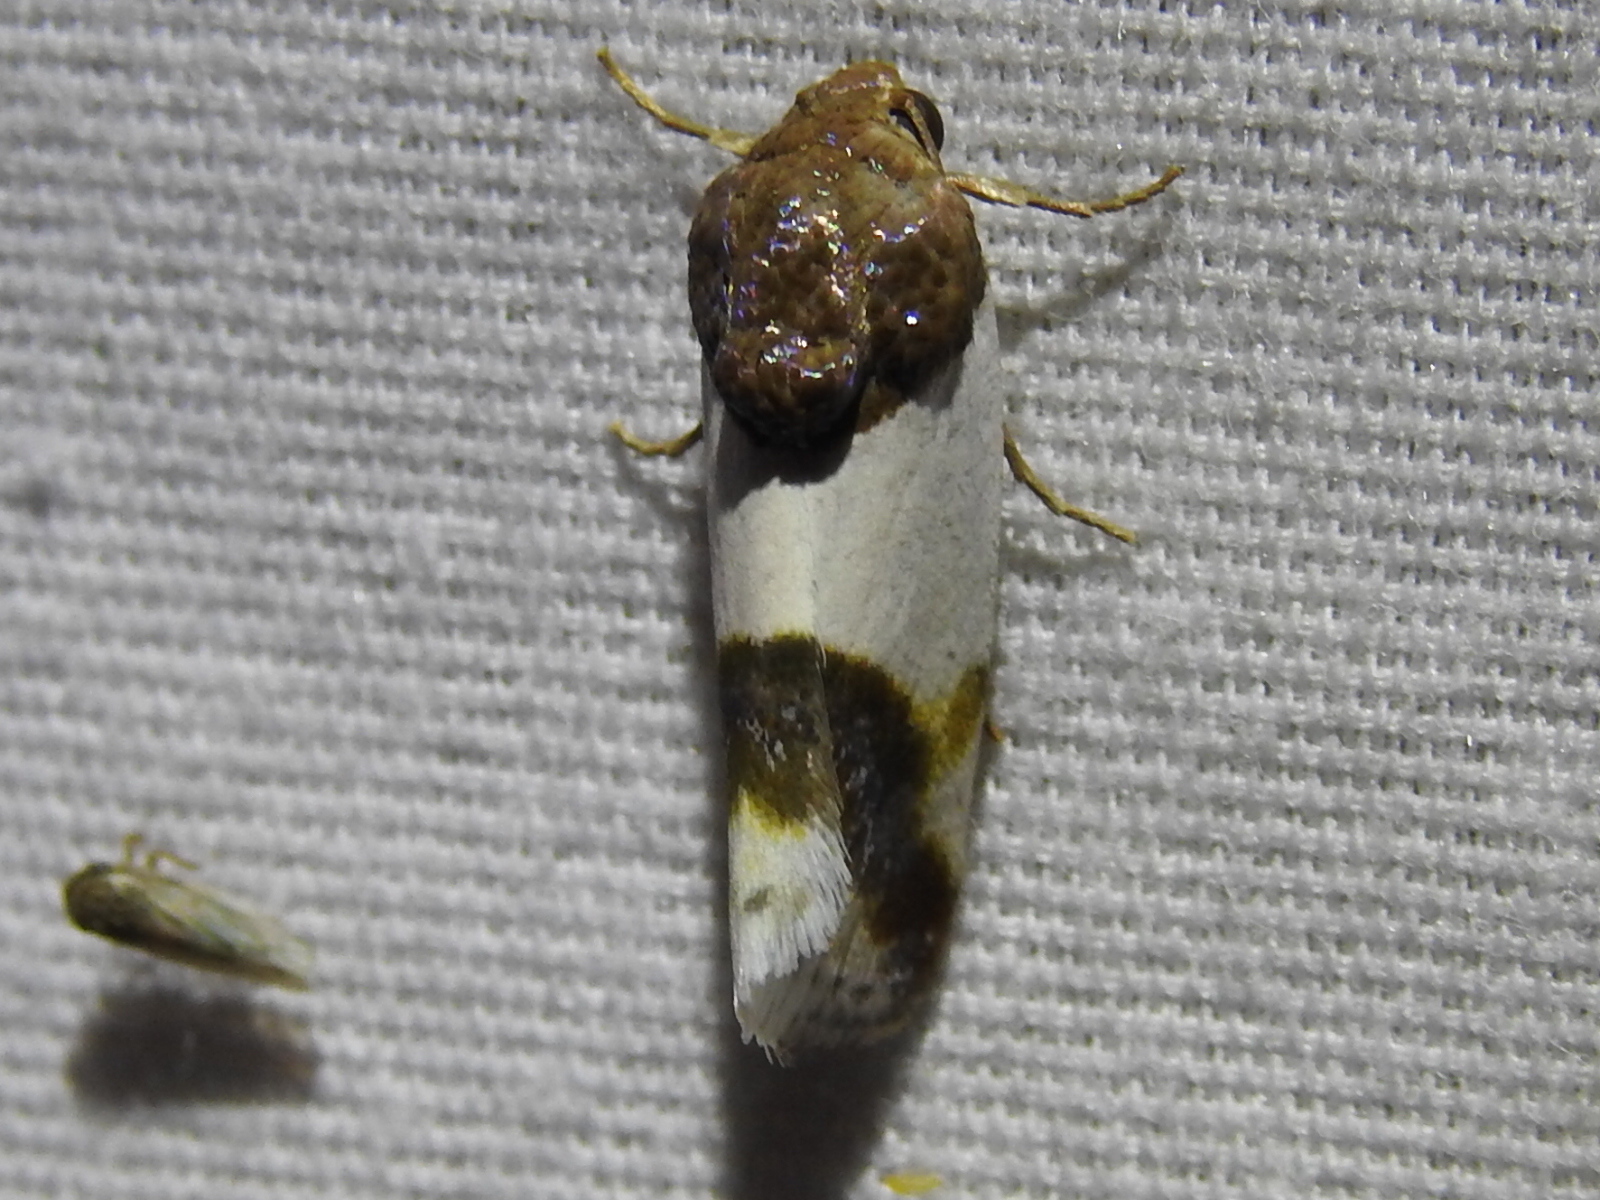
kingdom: Animalia
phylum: Arthropoda
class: Insecta
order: Lepidoptera
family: Noctuidae
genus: Acontia
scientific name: Acontia Tarache lactipennis
